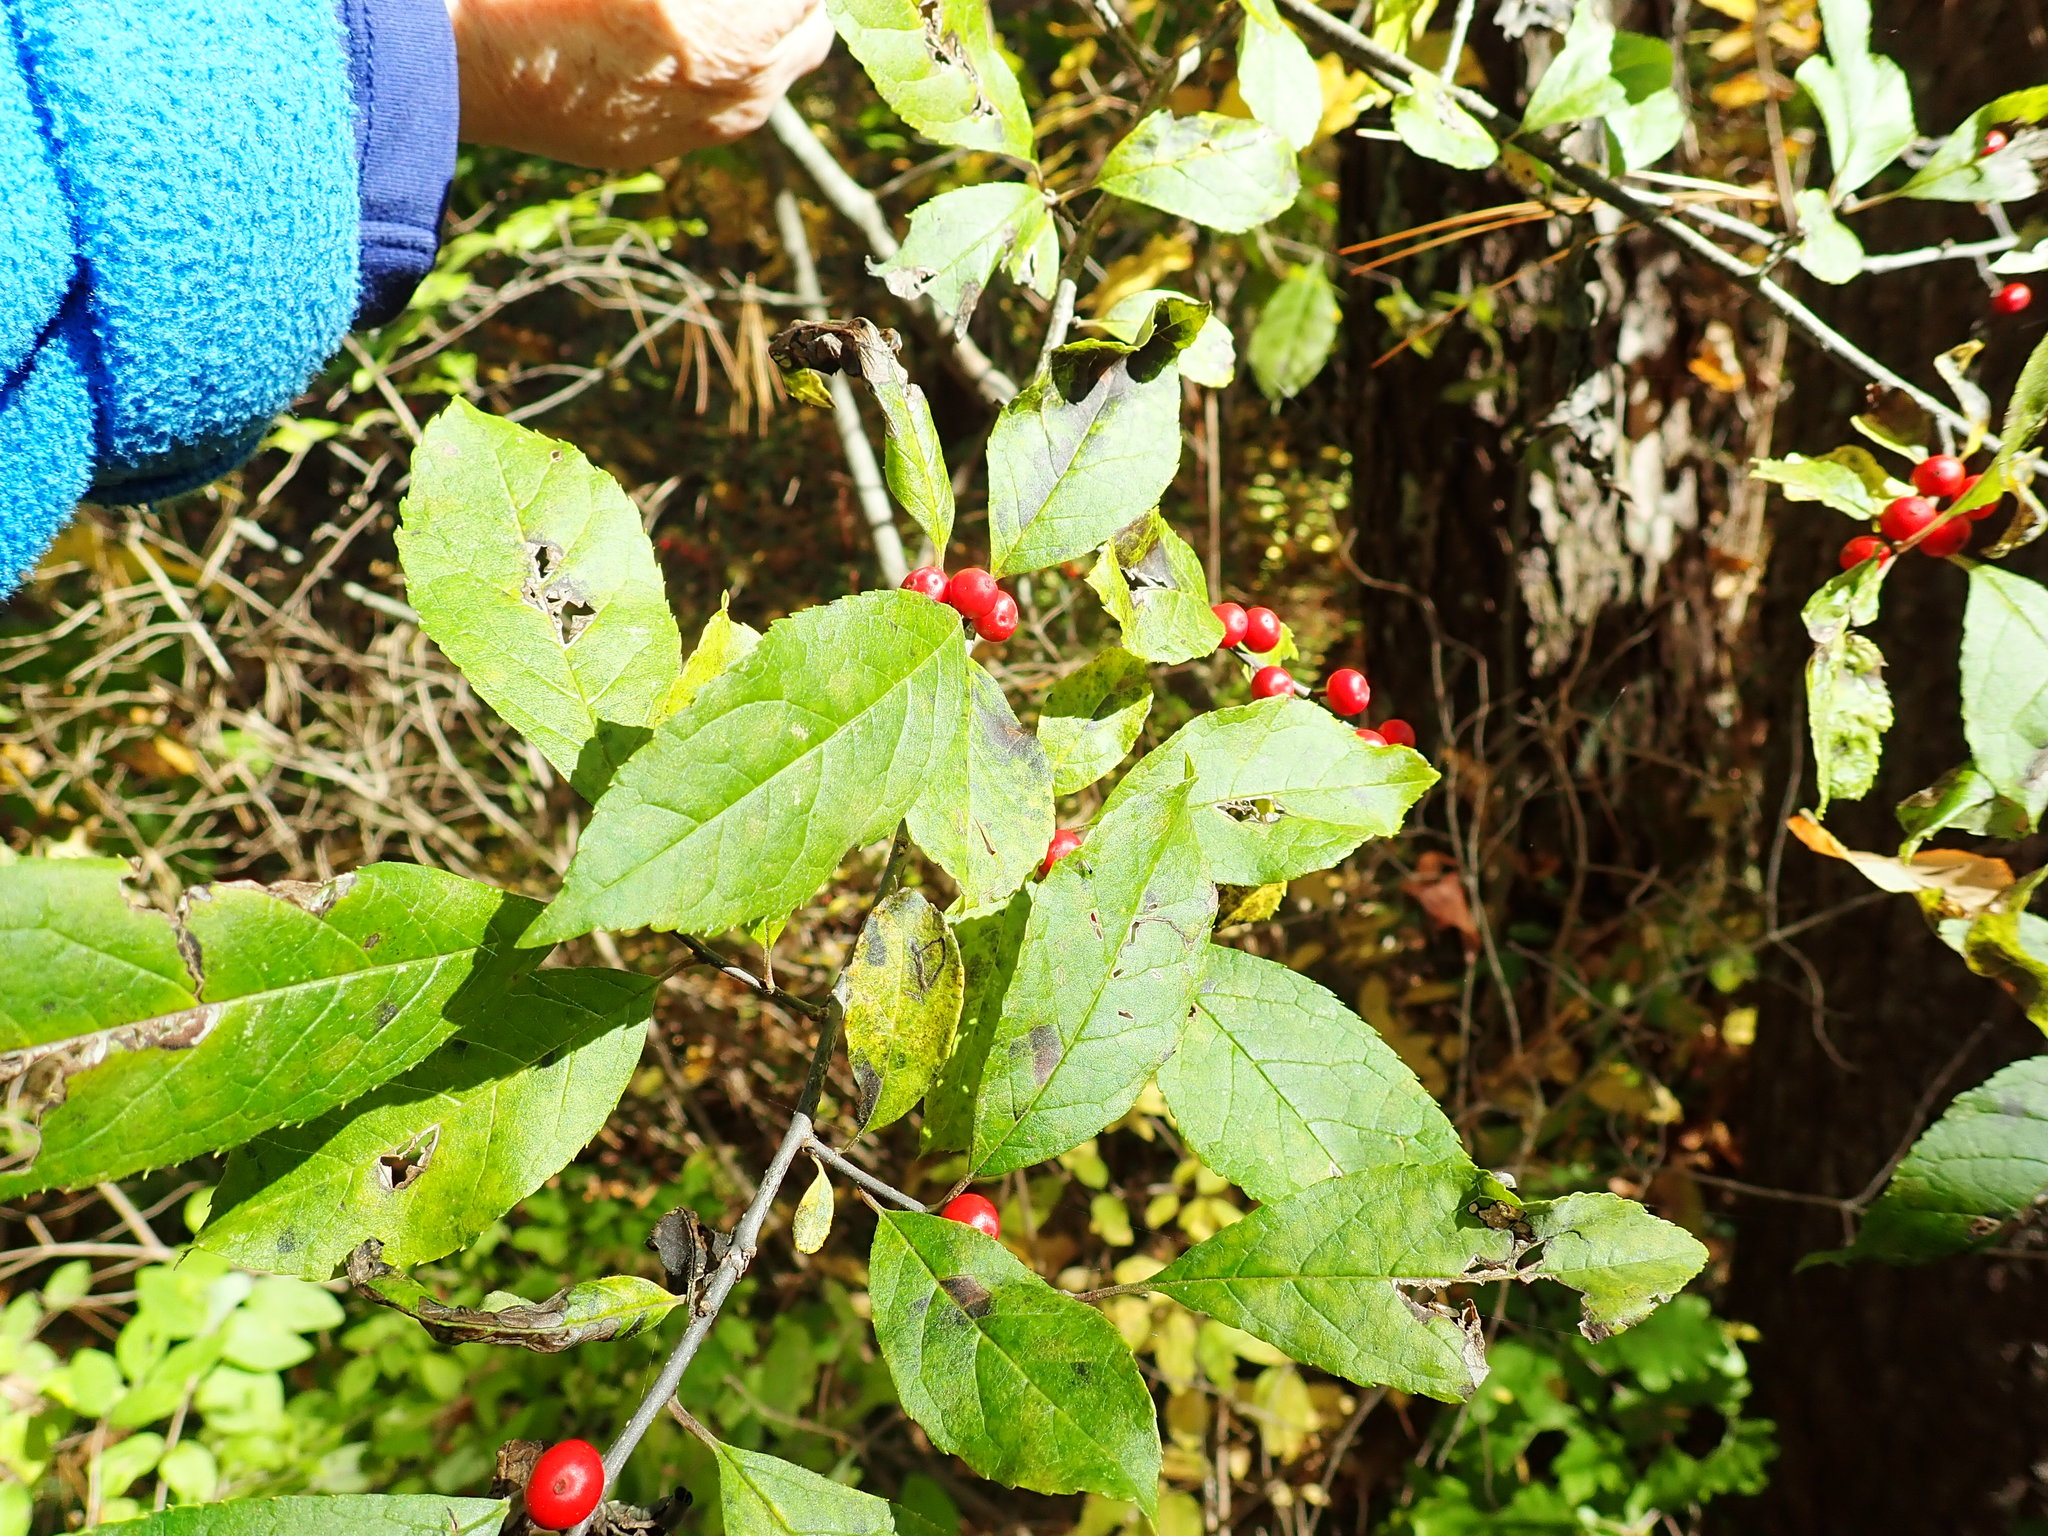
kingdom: Plantae
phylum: Tracheophyta
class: Magnoliopsida
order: Aquifoliales
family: Aquifoliaceae
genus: Ilex
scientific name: Ilex verticillata
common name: Virginia winterberry
